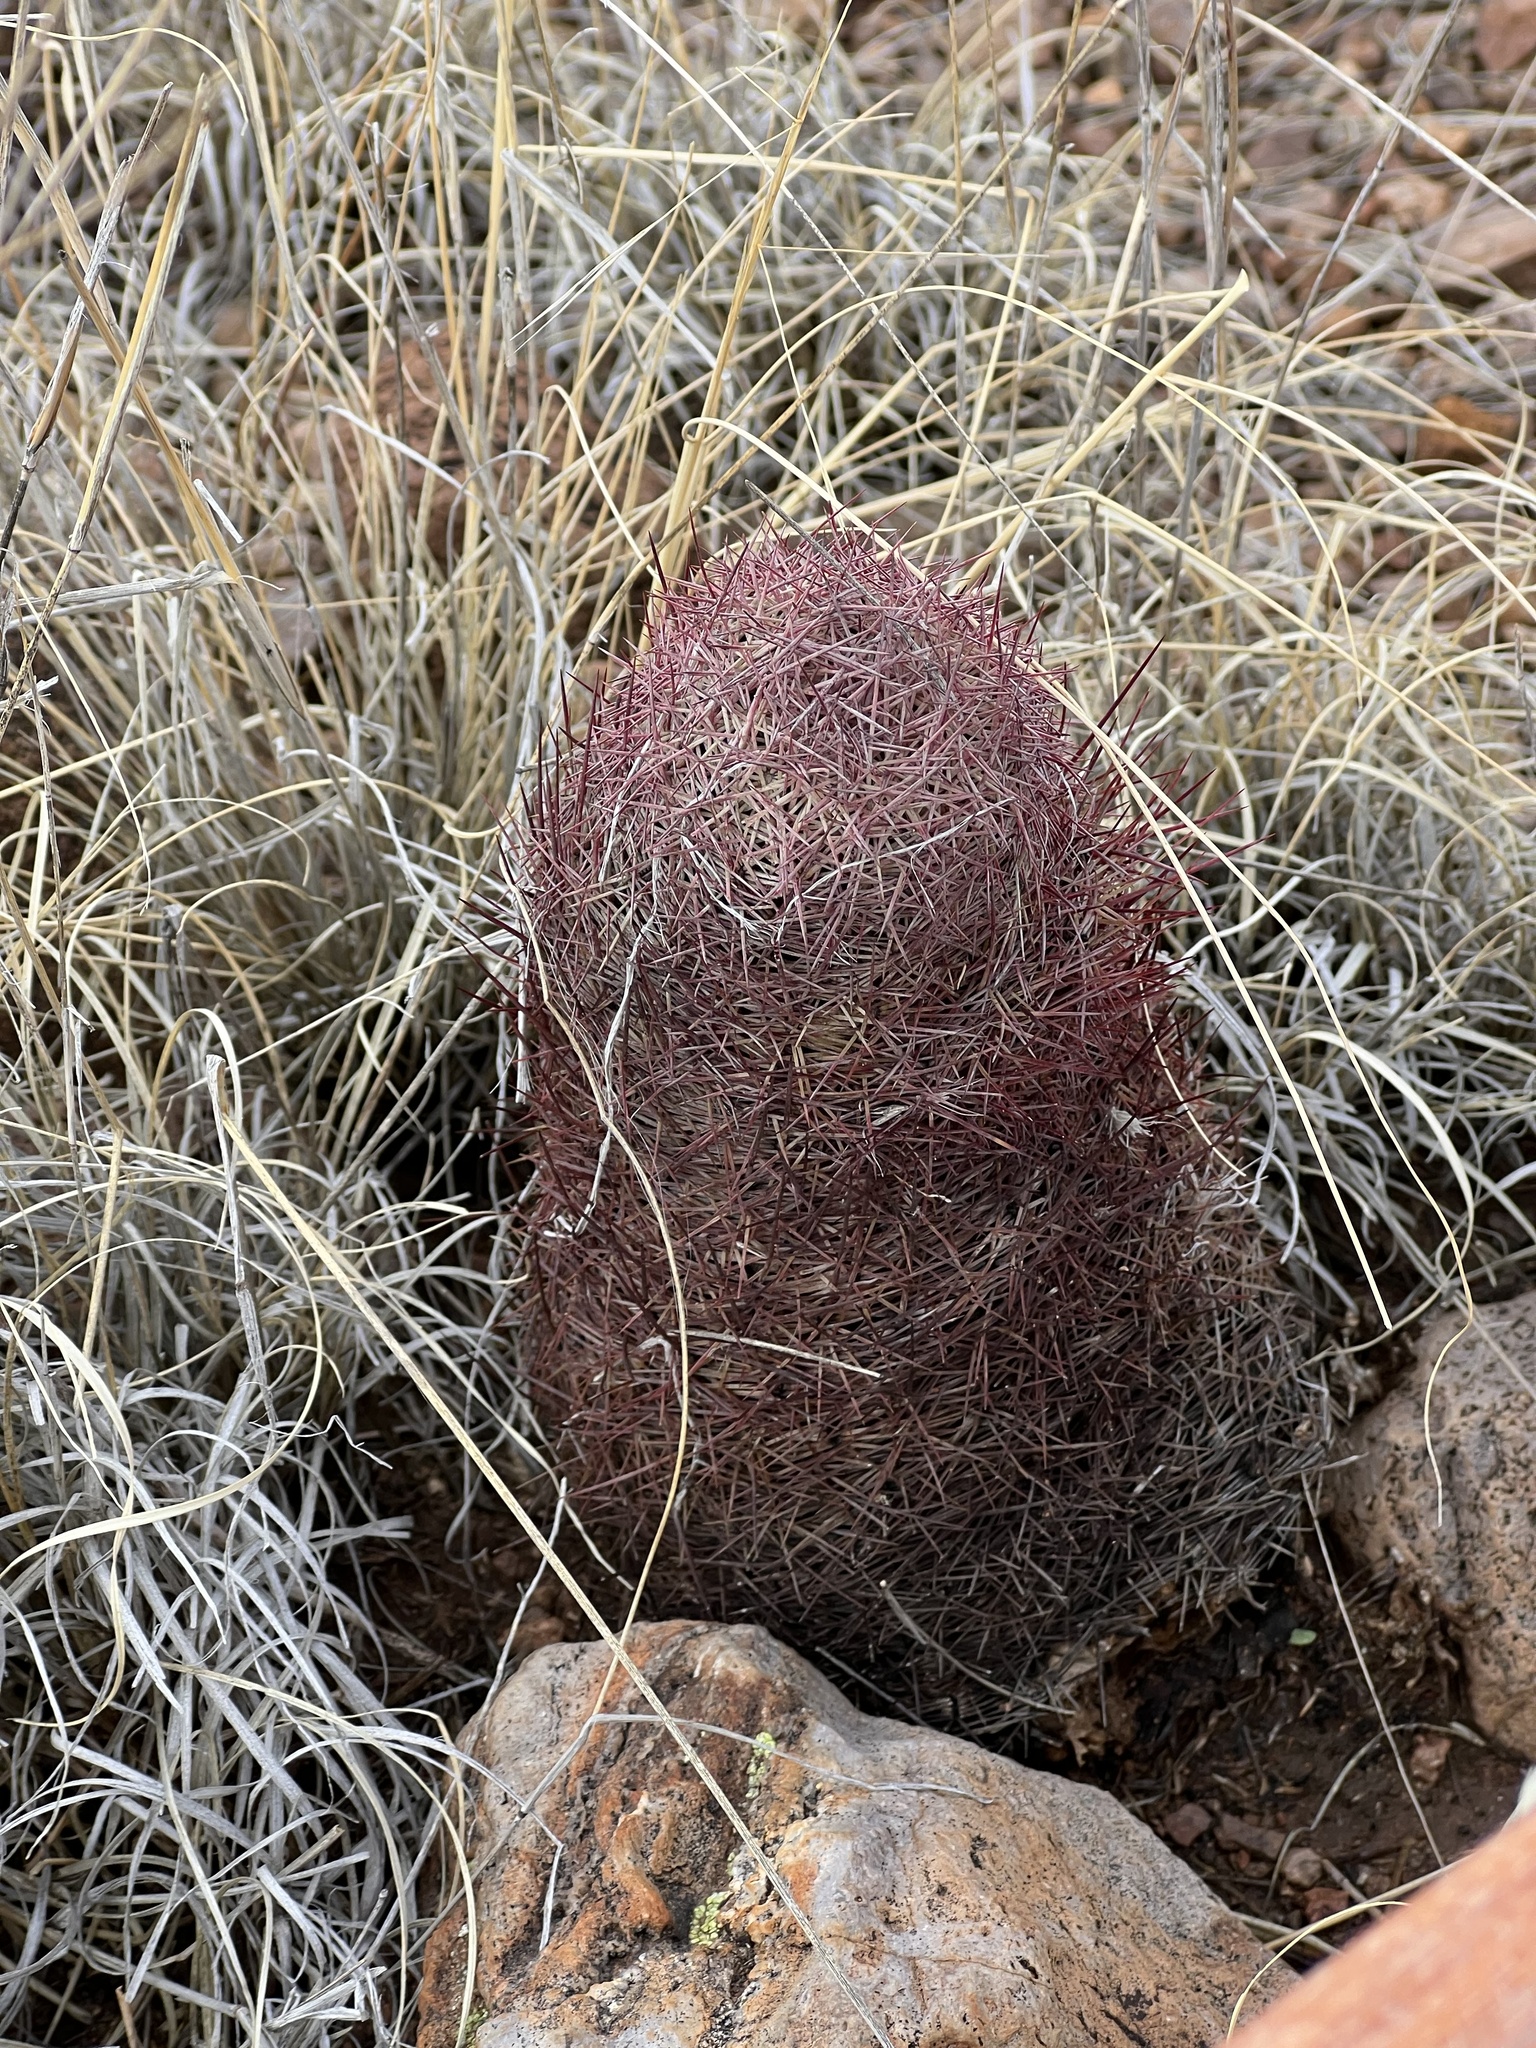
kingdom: Plantae
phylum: Tracheophyta
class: Magnoliopsida
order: Caryophyllales
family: Cactaceae
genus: Sclerocactus
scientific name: Sclerocactus johnsonii
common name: Eight-spine fishhook cactus
